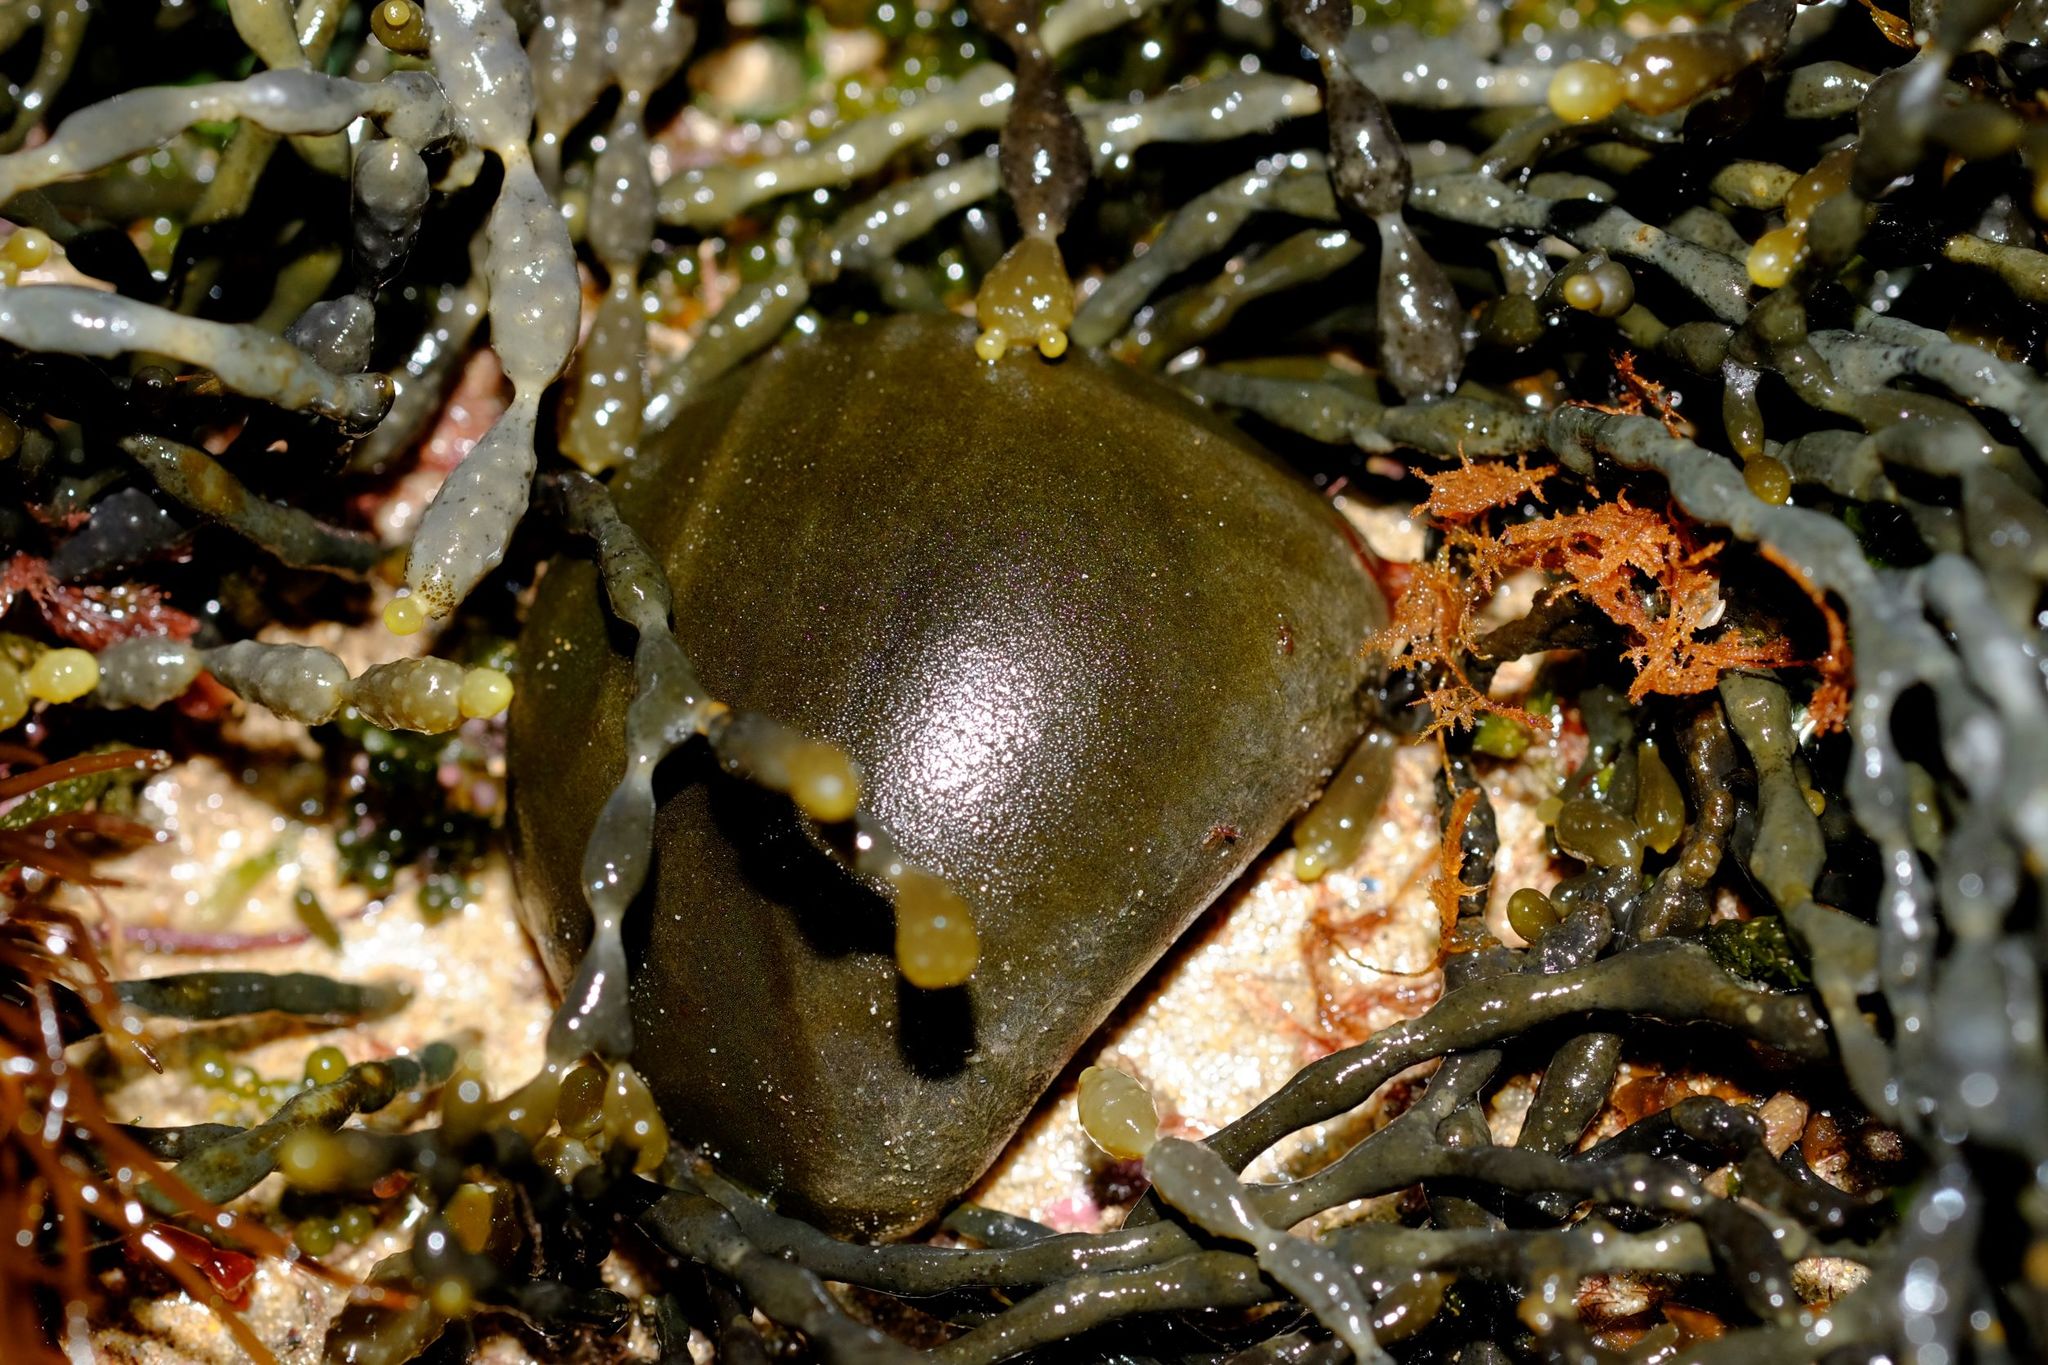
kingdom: Plantae
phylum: Chlorophyta
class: Ulvophyceae
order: Bryopsidales
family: Codiaceae
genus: Codium
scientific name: Codium
